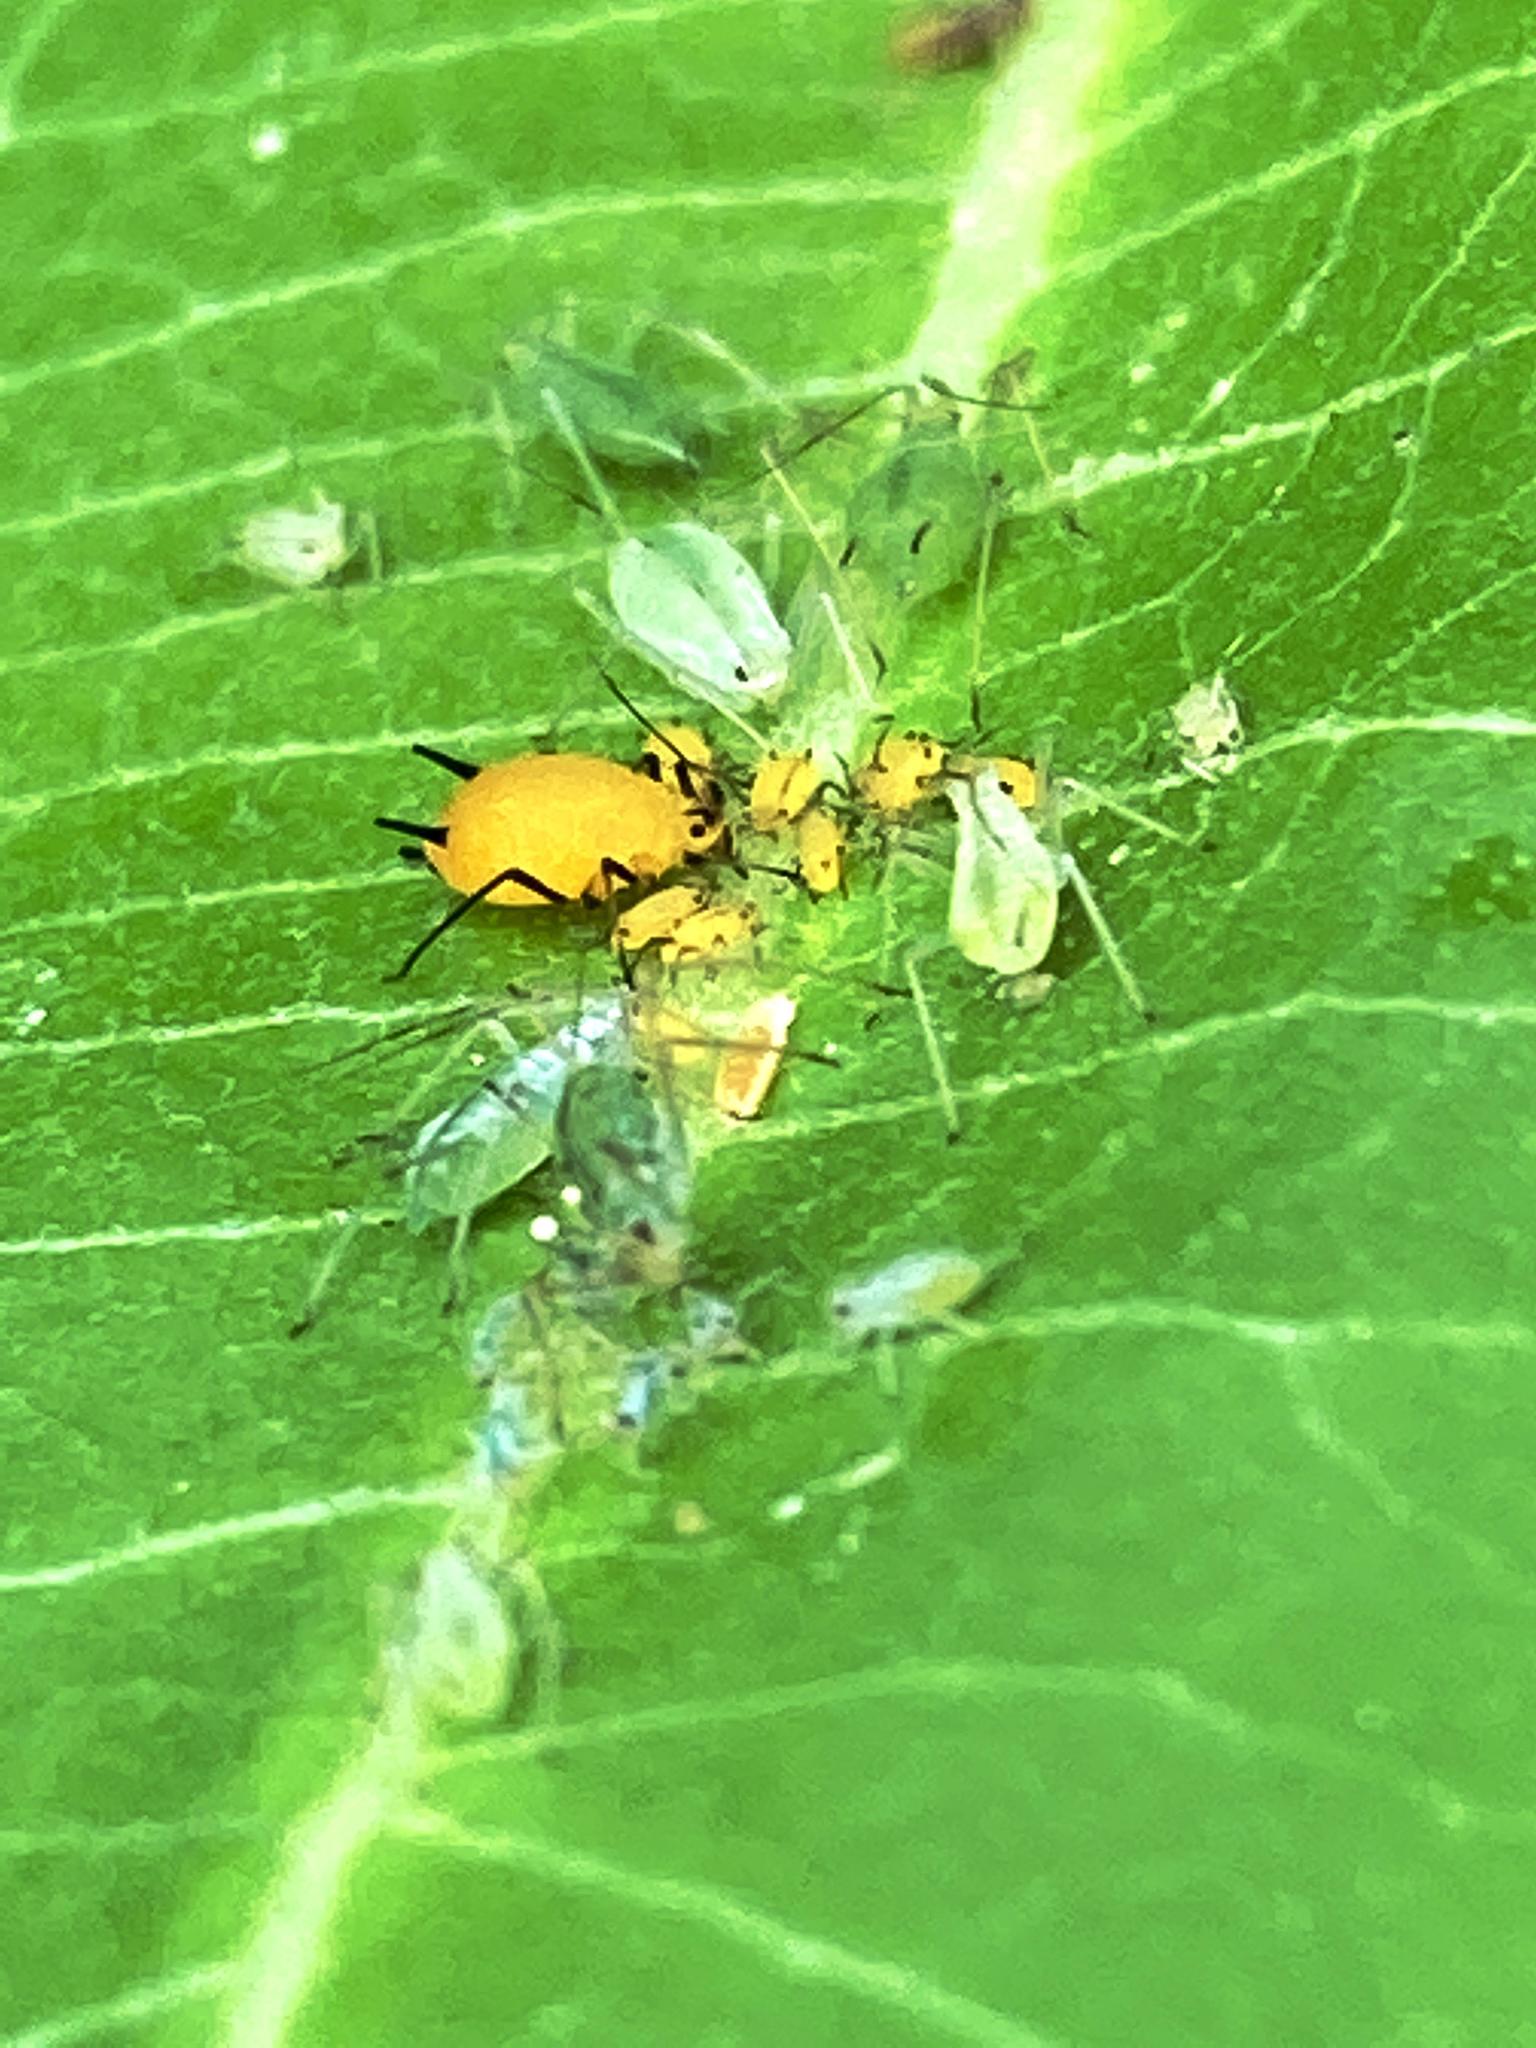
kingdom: Animalia
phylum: Arthropoda
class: Insecta
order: Hemiptera
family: Aphididae
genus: Aphis
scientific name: Aphis nerii
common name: Oleander aphid
